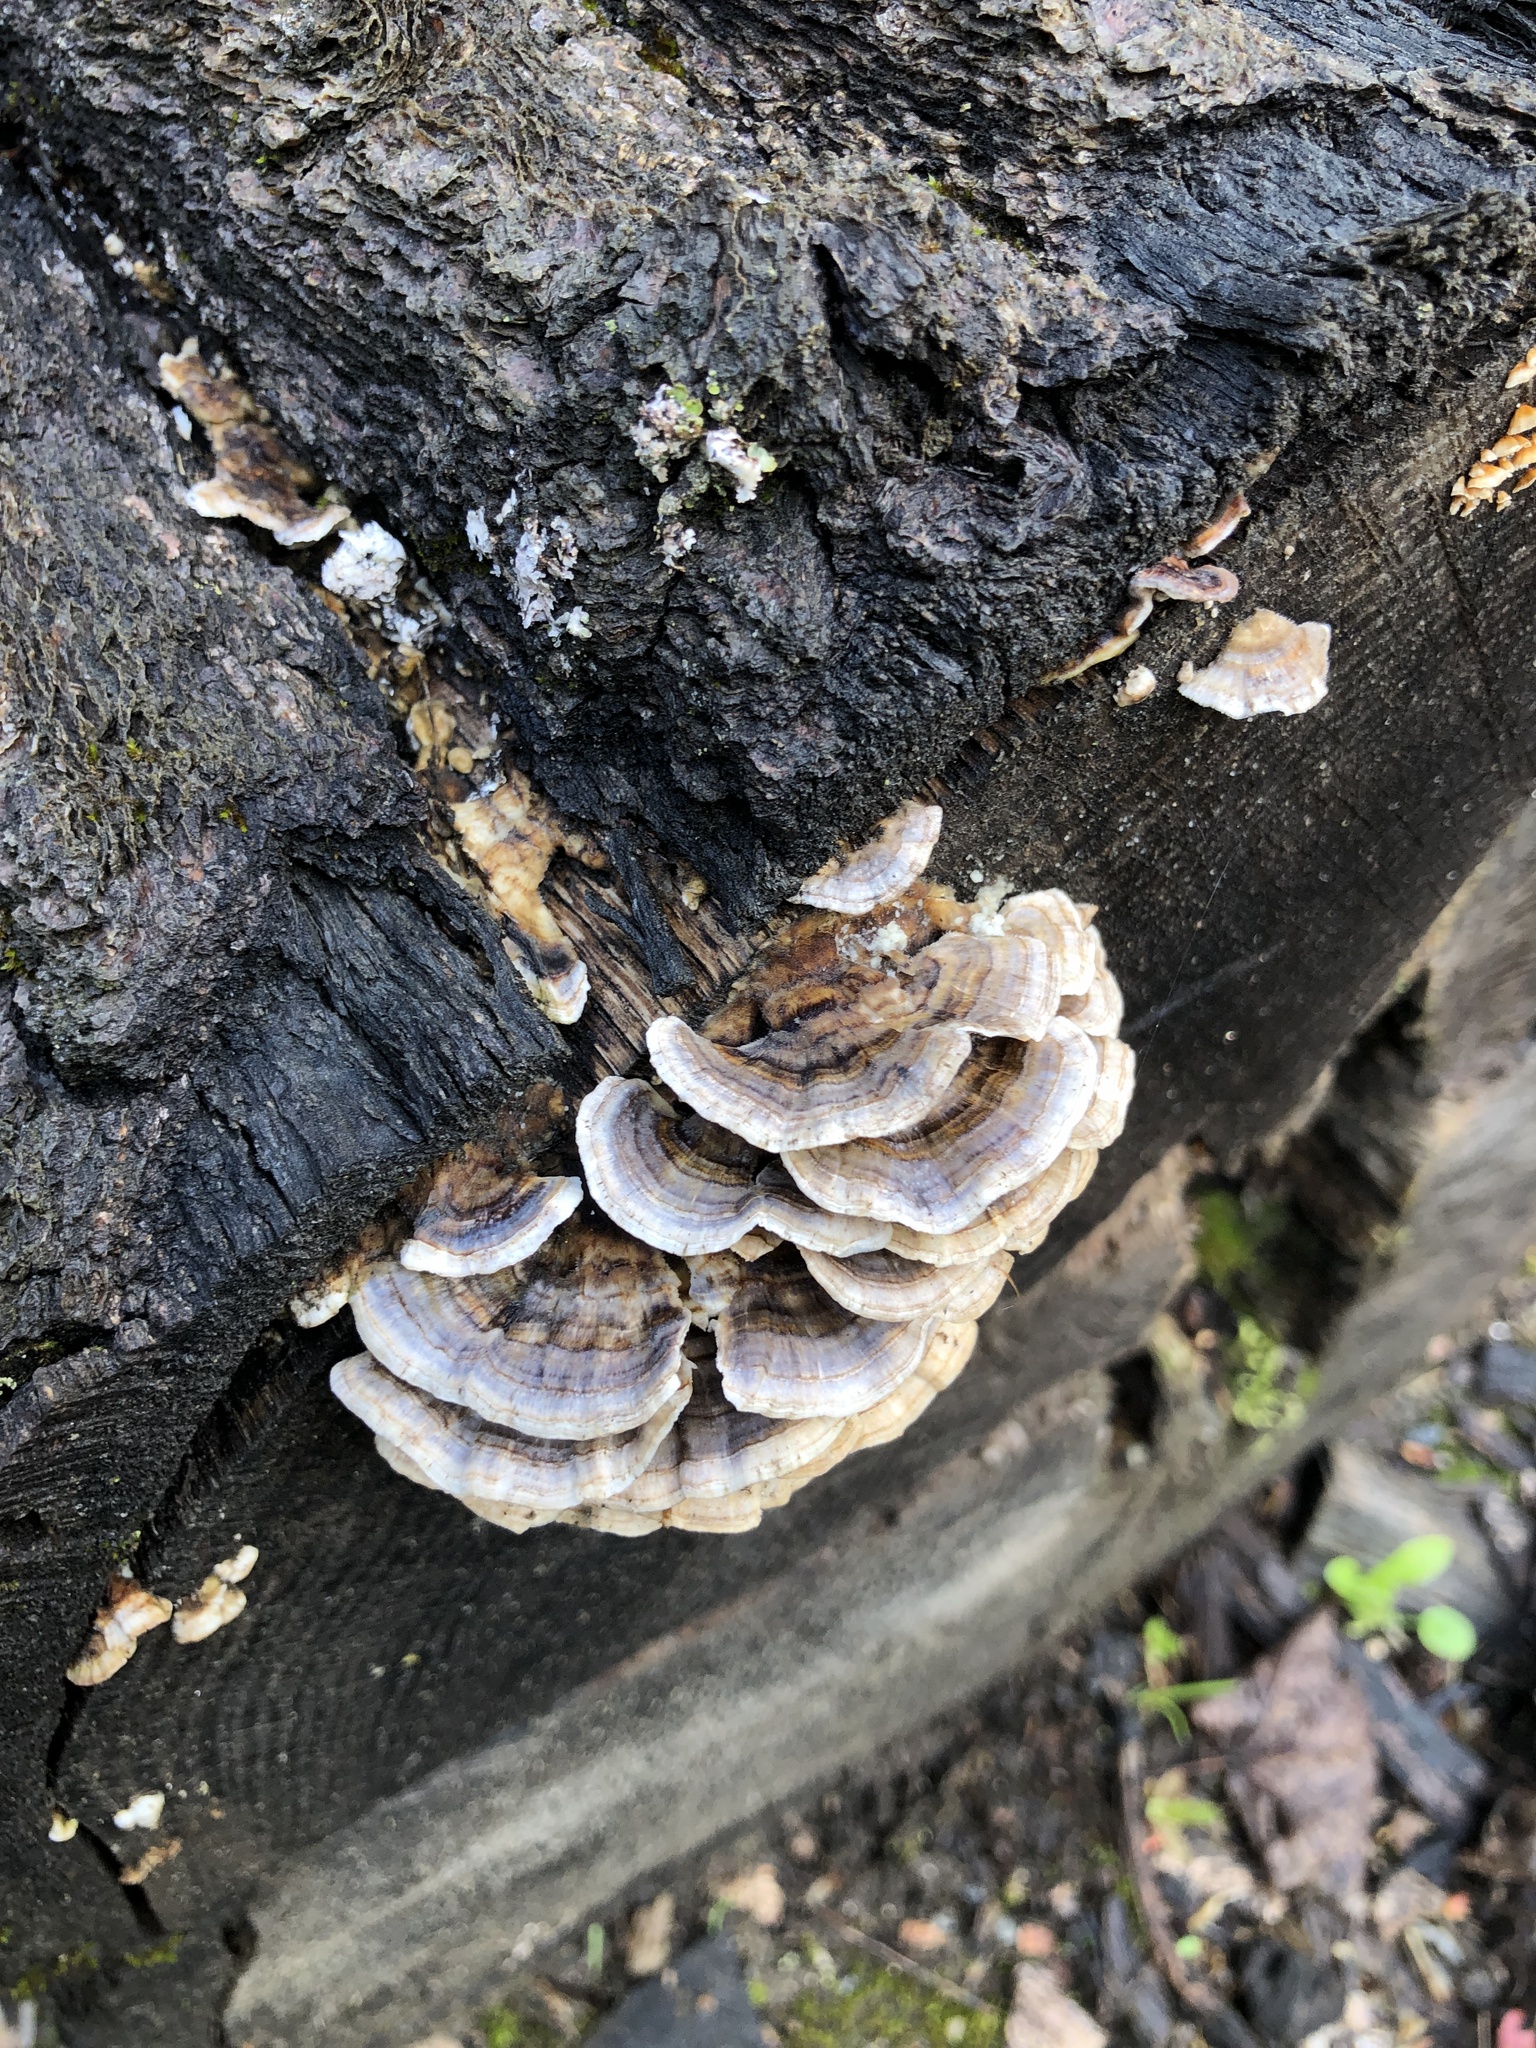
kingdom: Fungi
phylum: Basidiomycota
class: Agaricomycetes
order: Polyporales
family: Polyporaceae
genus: Trametes
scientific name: Trametes versicolor
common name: Turkeytail
